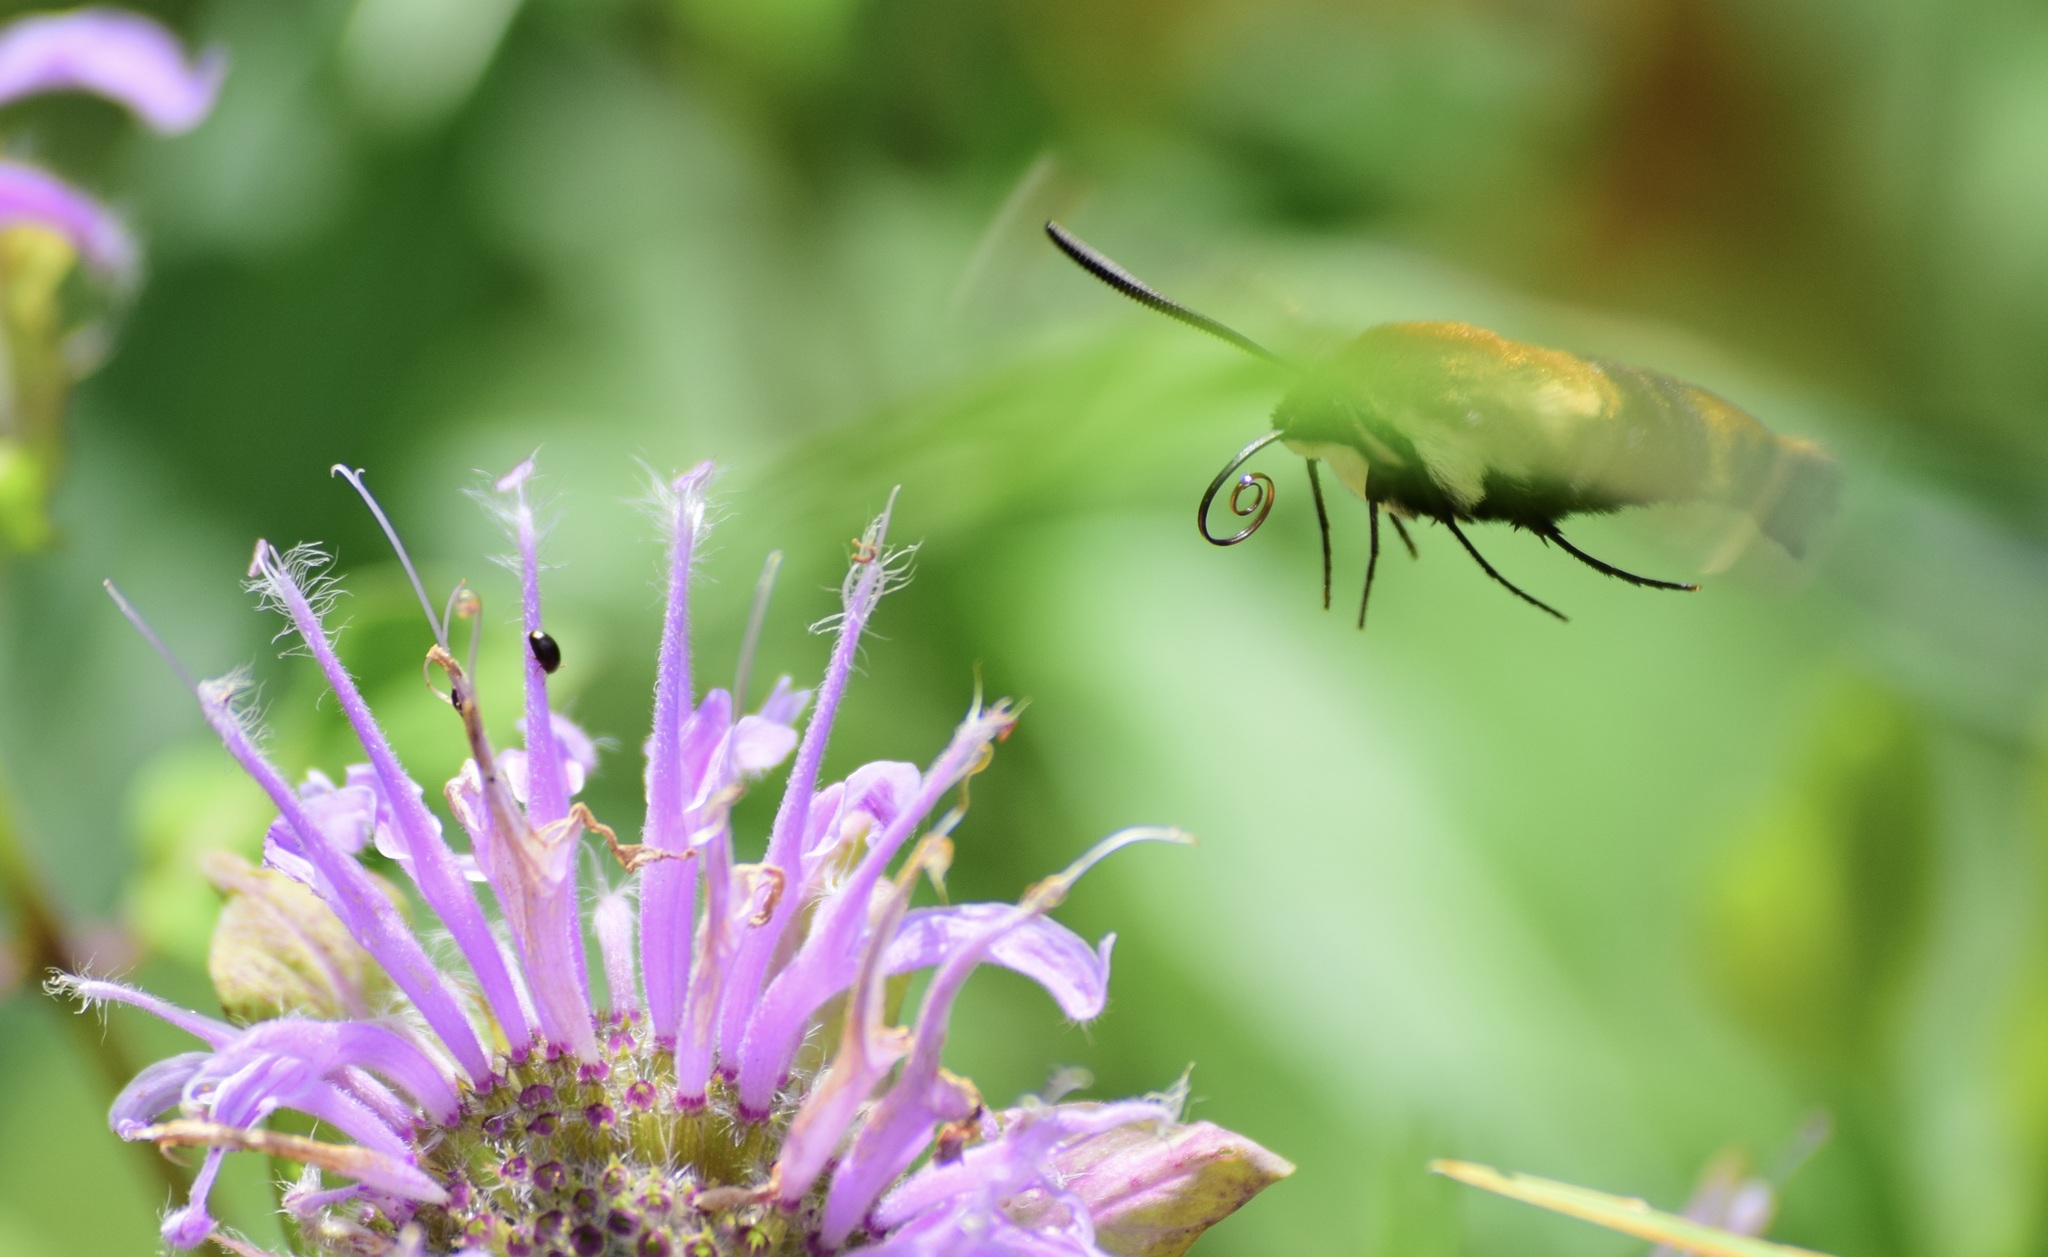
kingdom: Animalia
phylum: Arthropoda
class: Insecta
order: Lepidoptera
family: Sphingidae
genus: Hemaris
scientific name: Hemaris diffinis
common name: Bumblebee moth
